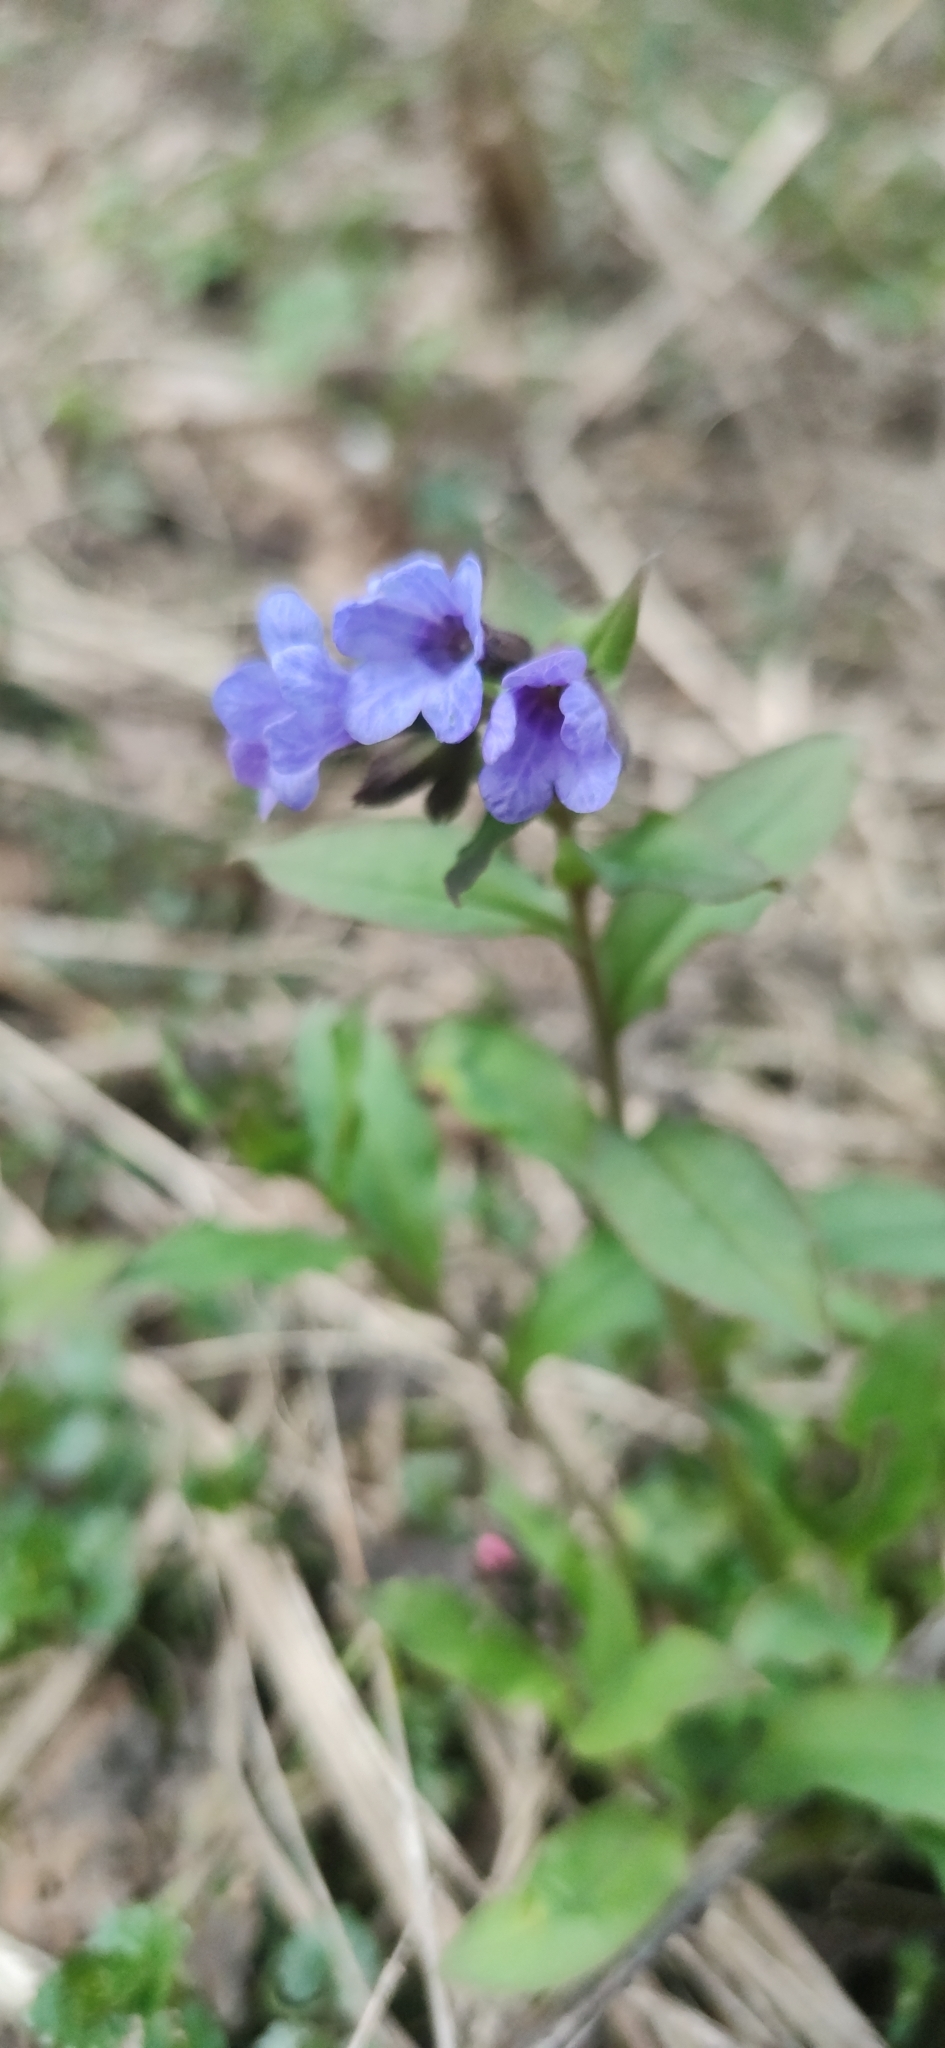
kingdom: Plantae
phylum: Tracheophyta
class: Magnoliopsida
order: Boraginales
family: Boraginaceae
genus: Pulmonaria
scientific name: Pulmonaria obscura
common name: Suffolk lungwort
